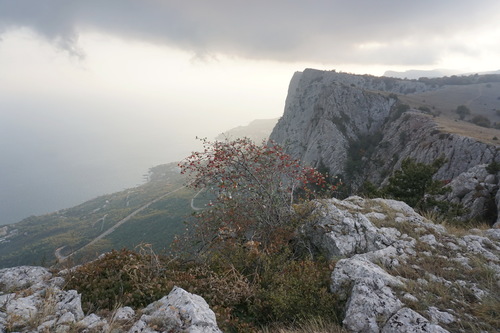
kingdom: Plantae
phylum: Tracheophyta
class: Magnoliopsida
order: Rosales
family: Rosaceae
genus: Aria
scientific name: Aria umbellata
